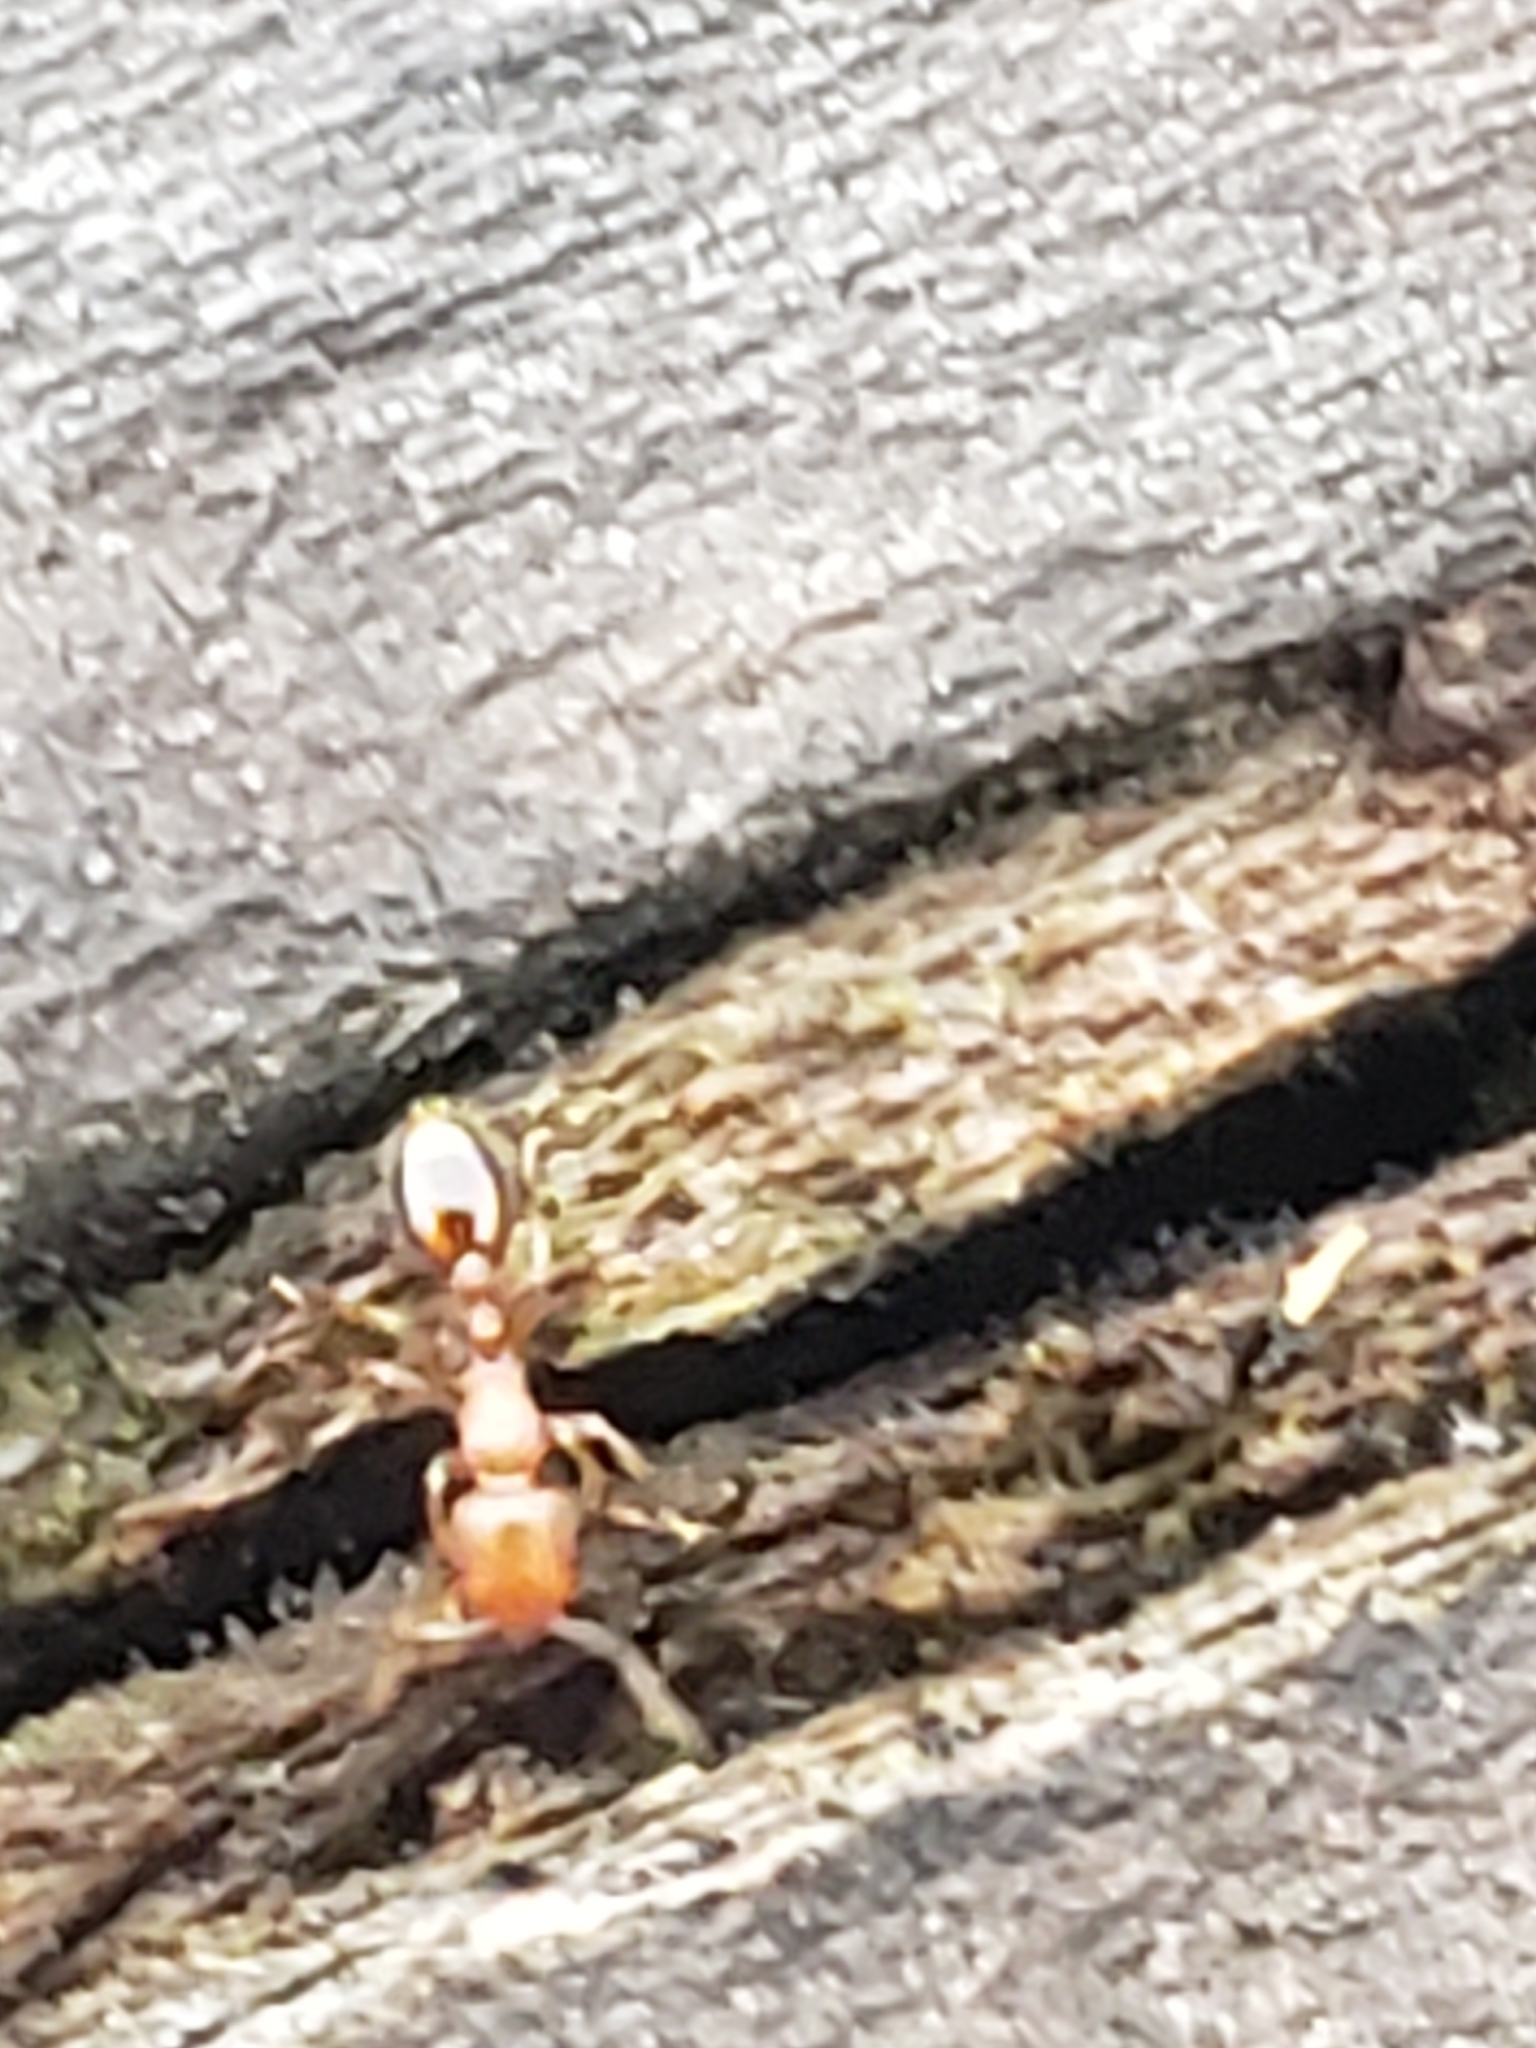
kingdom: Animalia
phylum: Arthropoda
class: Insecta
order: Hymenoptera
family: Formicidae
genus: Vollenhovia
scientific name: Vollenhovia emeryi
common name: Ant
